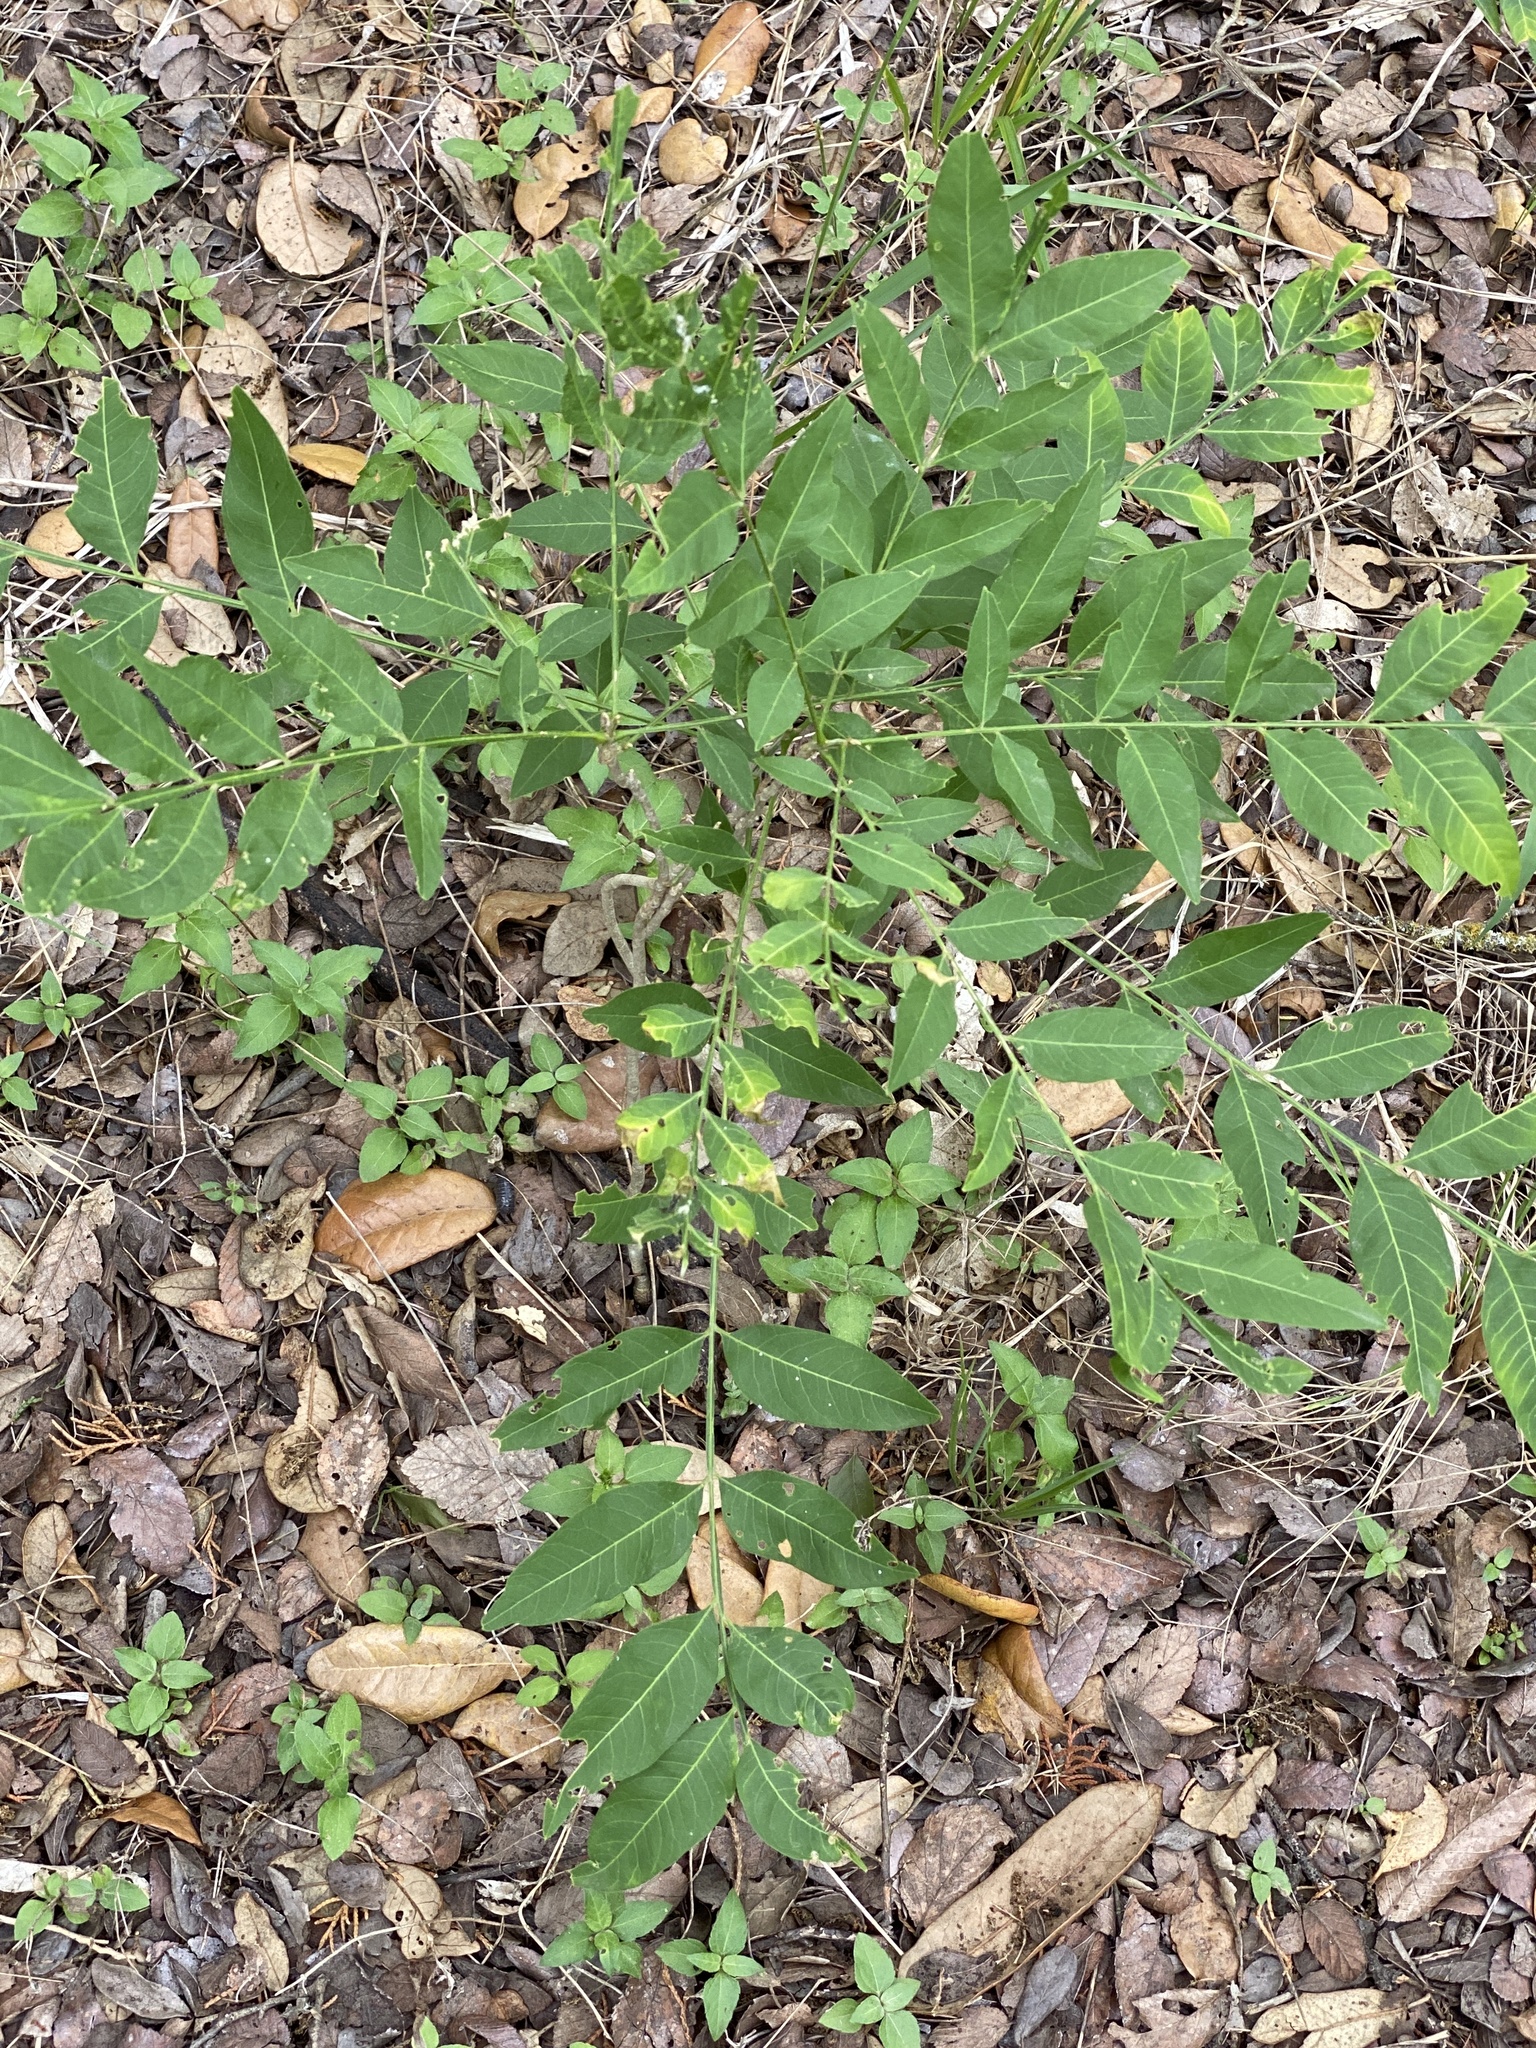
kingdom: Plantae
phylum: Tracheophyta
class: Magnoliopsida
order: Sapindales
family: Sapindaceae
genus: Sapindus
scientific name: Sapindus drummondii
